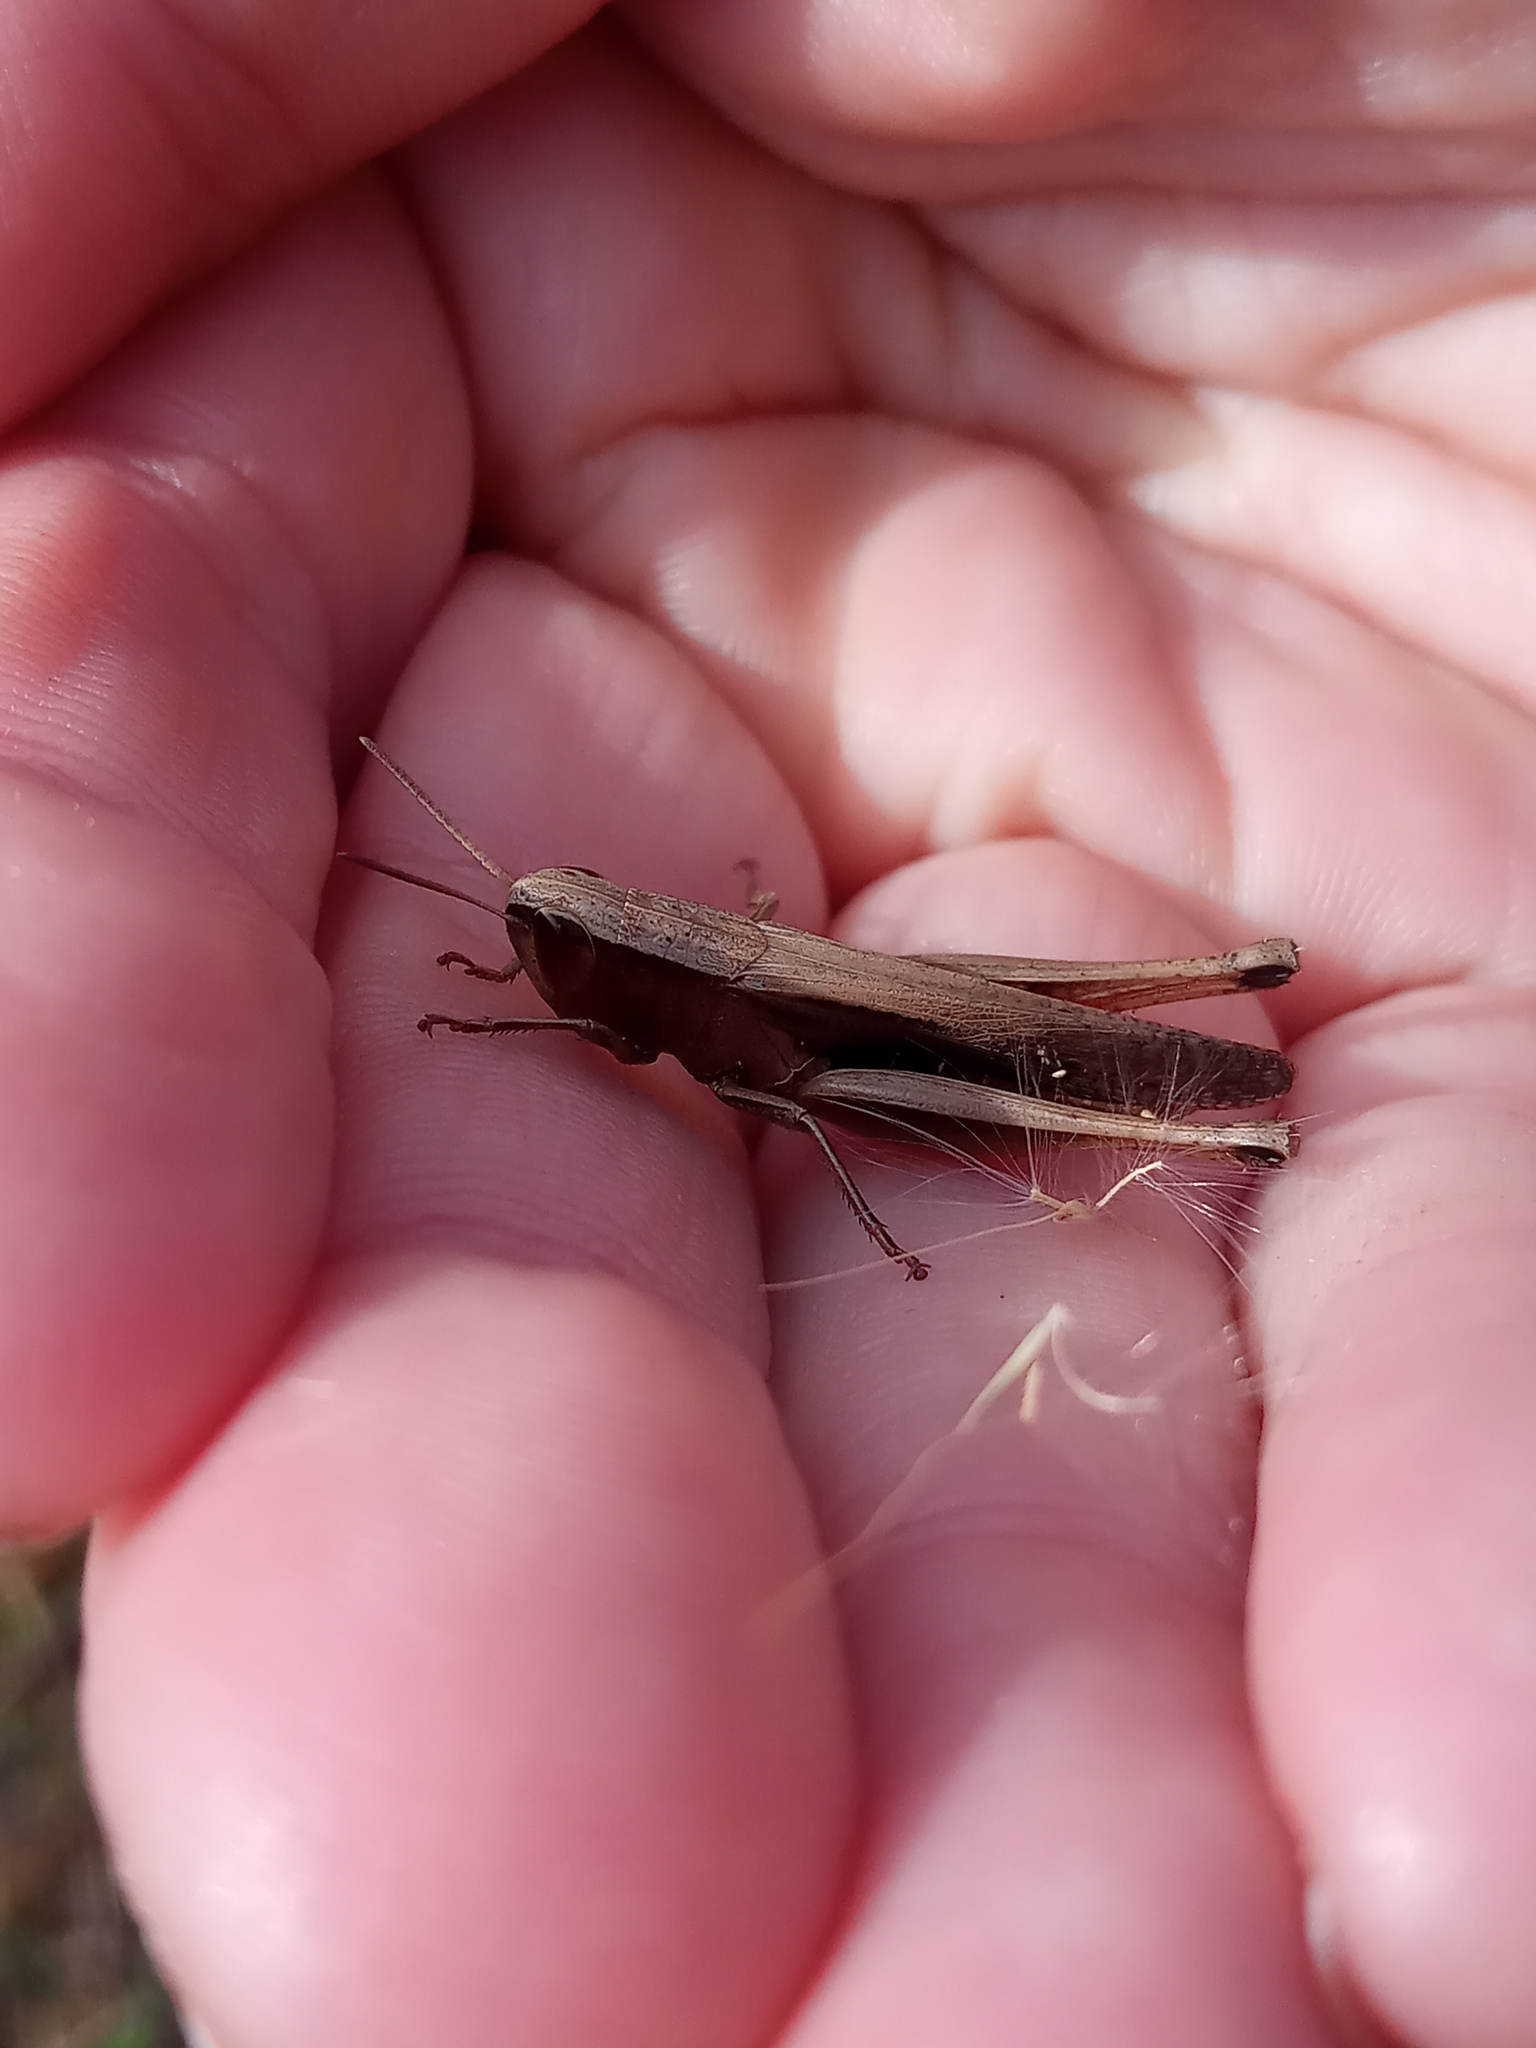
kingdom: Animalia
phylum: Arthropoda
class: Insecta
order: Orthoptera
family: Acrididae
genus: Amblytropidia
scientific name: Amblytropidia mysteca
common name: Brown winter grasshopper
